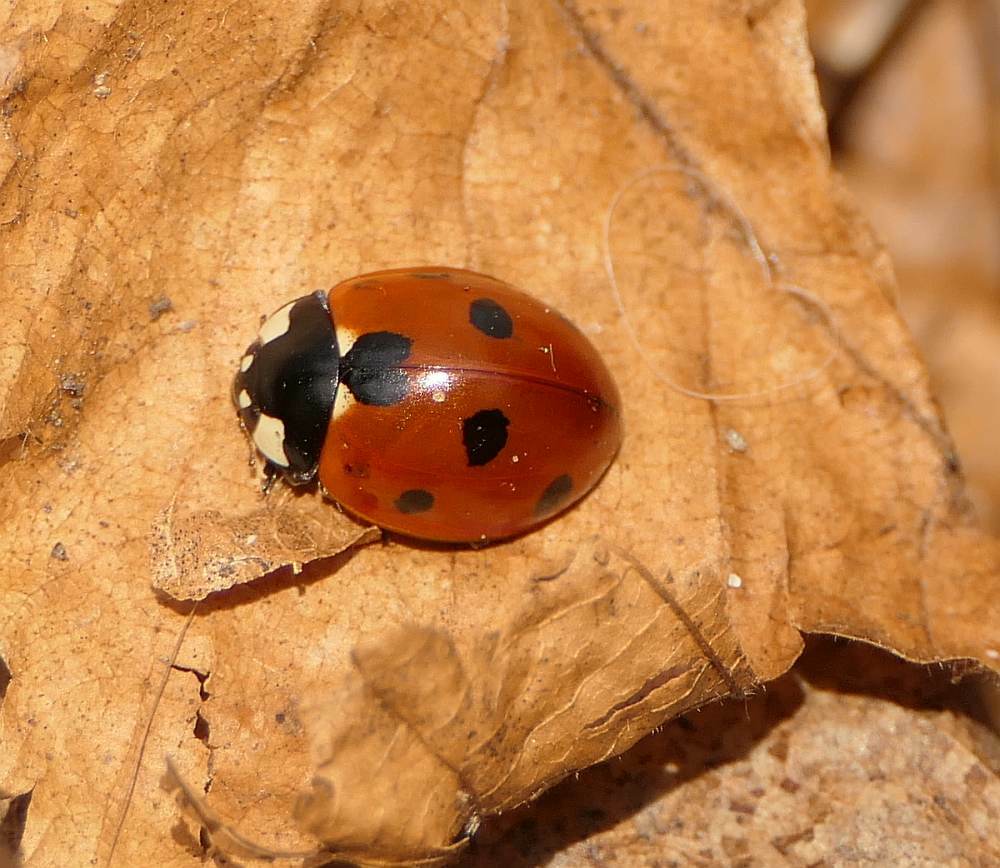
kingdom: Animalia
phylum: Arthropoda
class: Insecta
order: Coleoptera
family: Coccinellidae
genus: Coccinella
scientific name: Coccinella septempunctata
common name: Sevenspotted lady beetle
